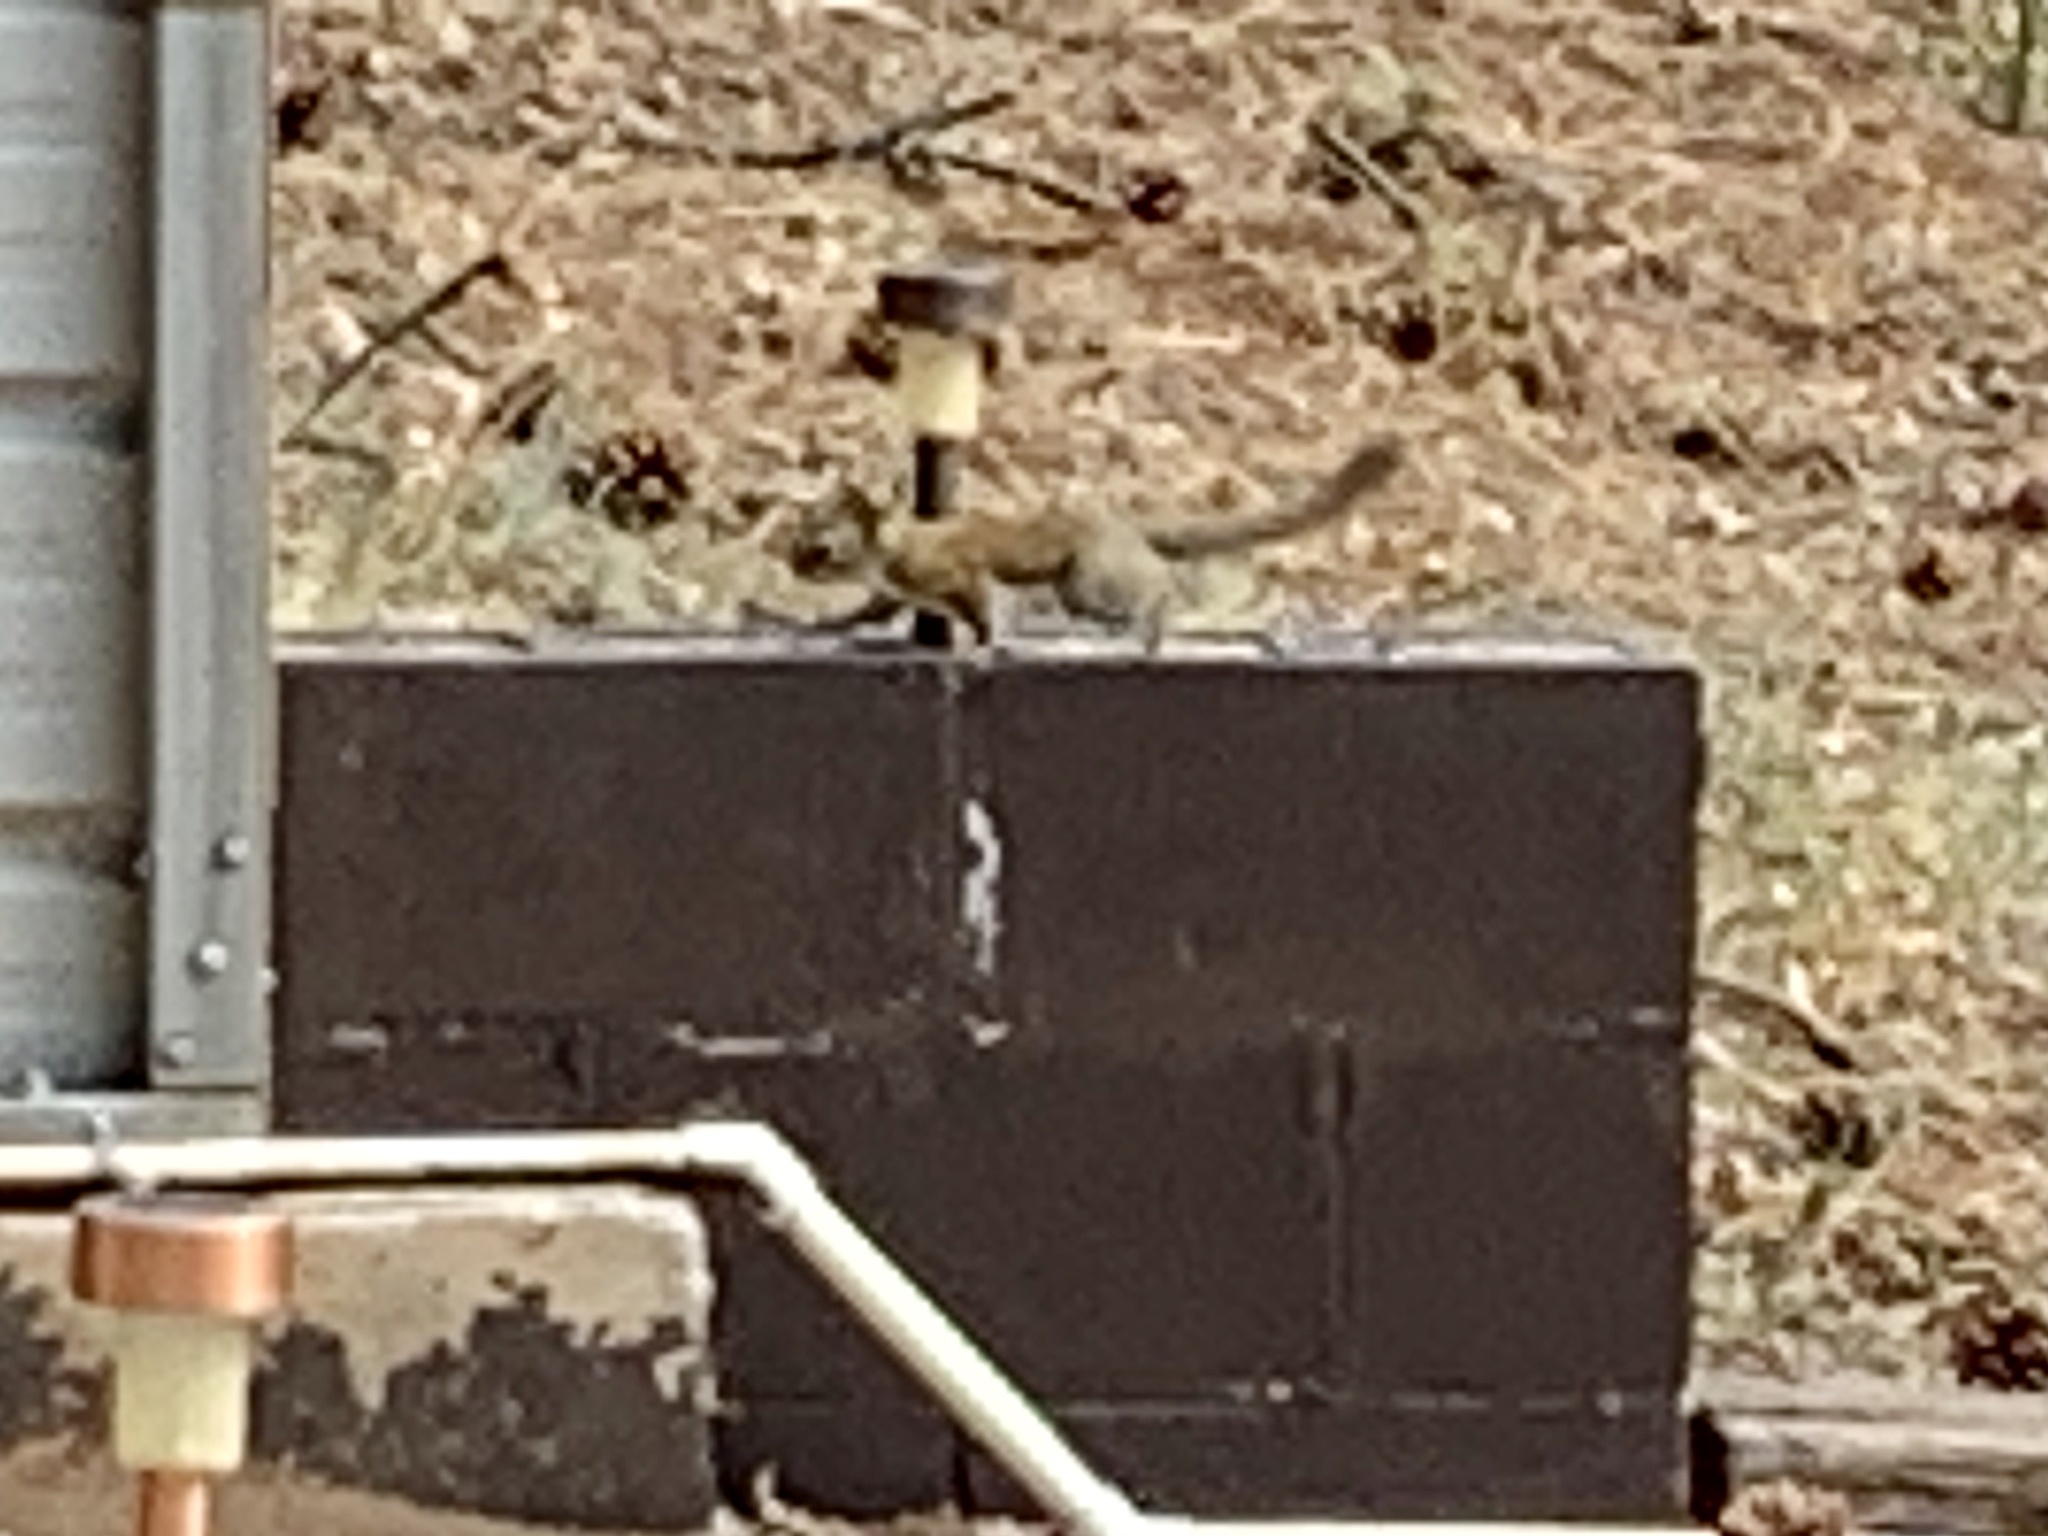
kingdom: Animalia
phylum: Chordata
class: Mammalia
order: Rodentia
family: Sciuridae
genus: Tamiasciurus
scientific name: Tamiasciurus hudsonicus
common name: Red squirrel
